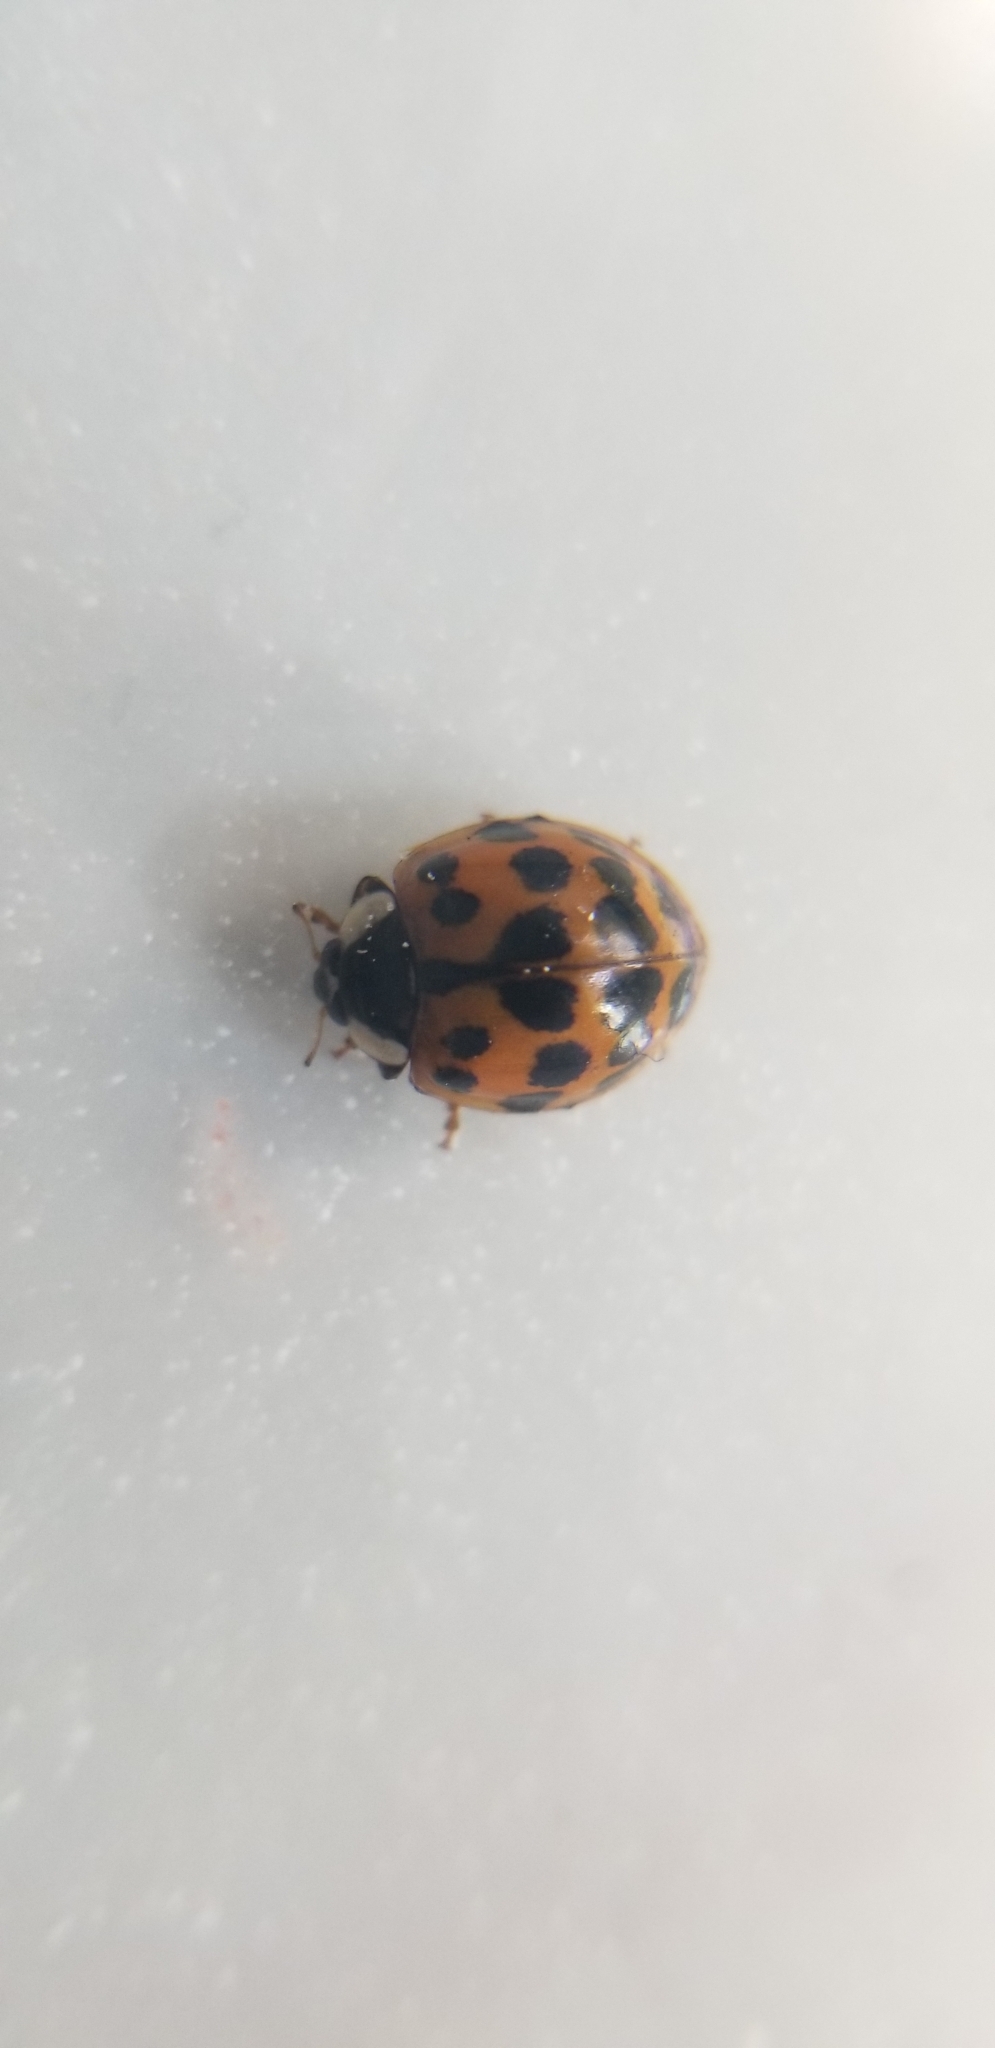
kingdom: Animalia
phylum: Arthropoda
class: Insecta
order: Coleoptera
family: Coccinellidae
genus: Harmonia
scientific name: Harmonia axyridis
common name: Harlequin ladybird
